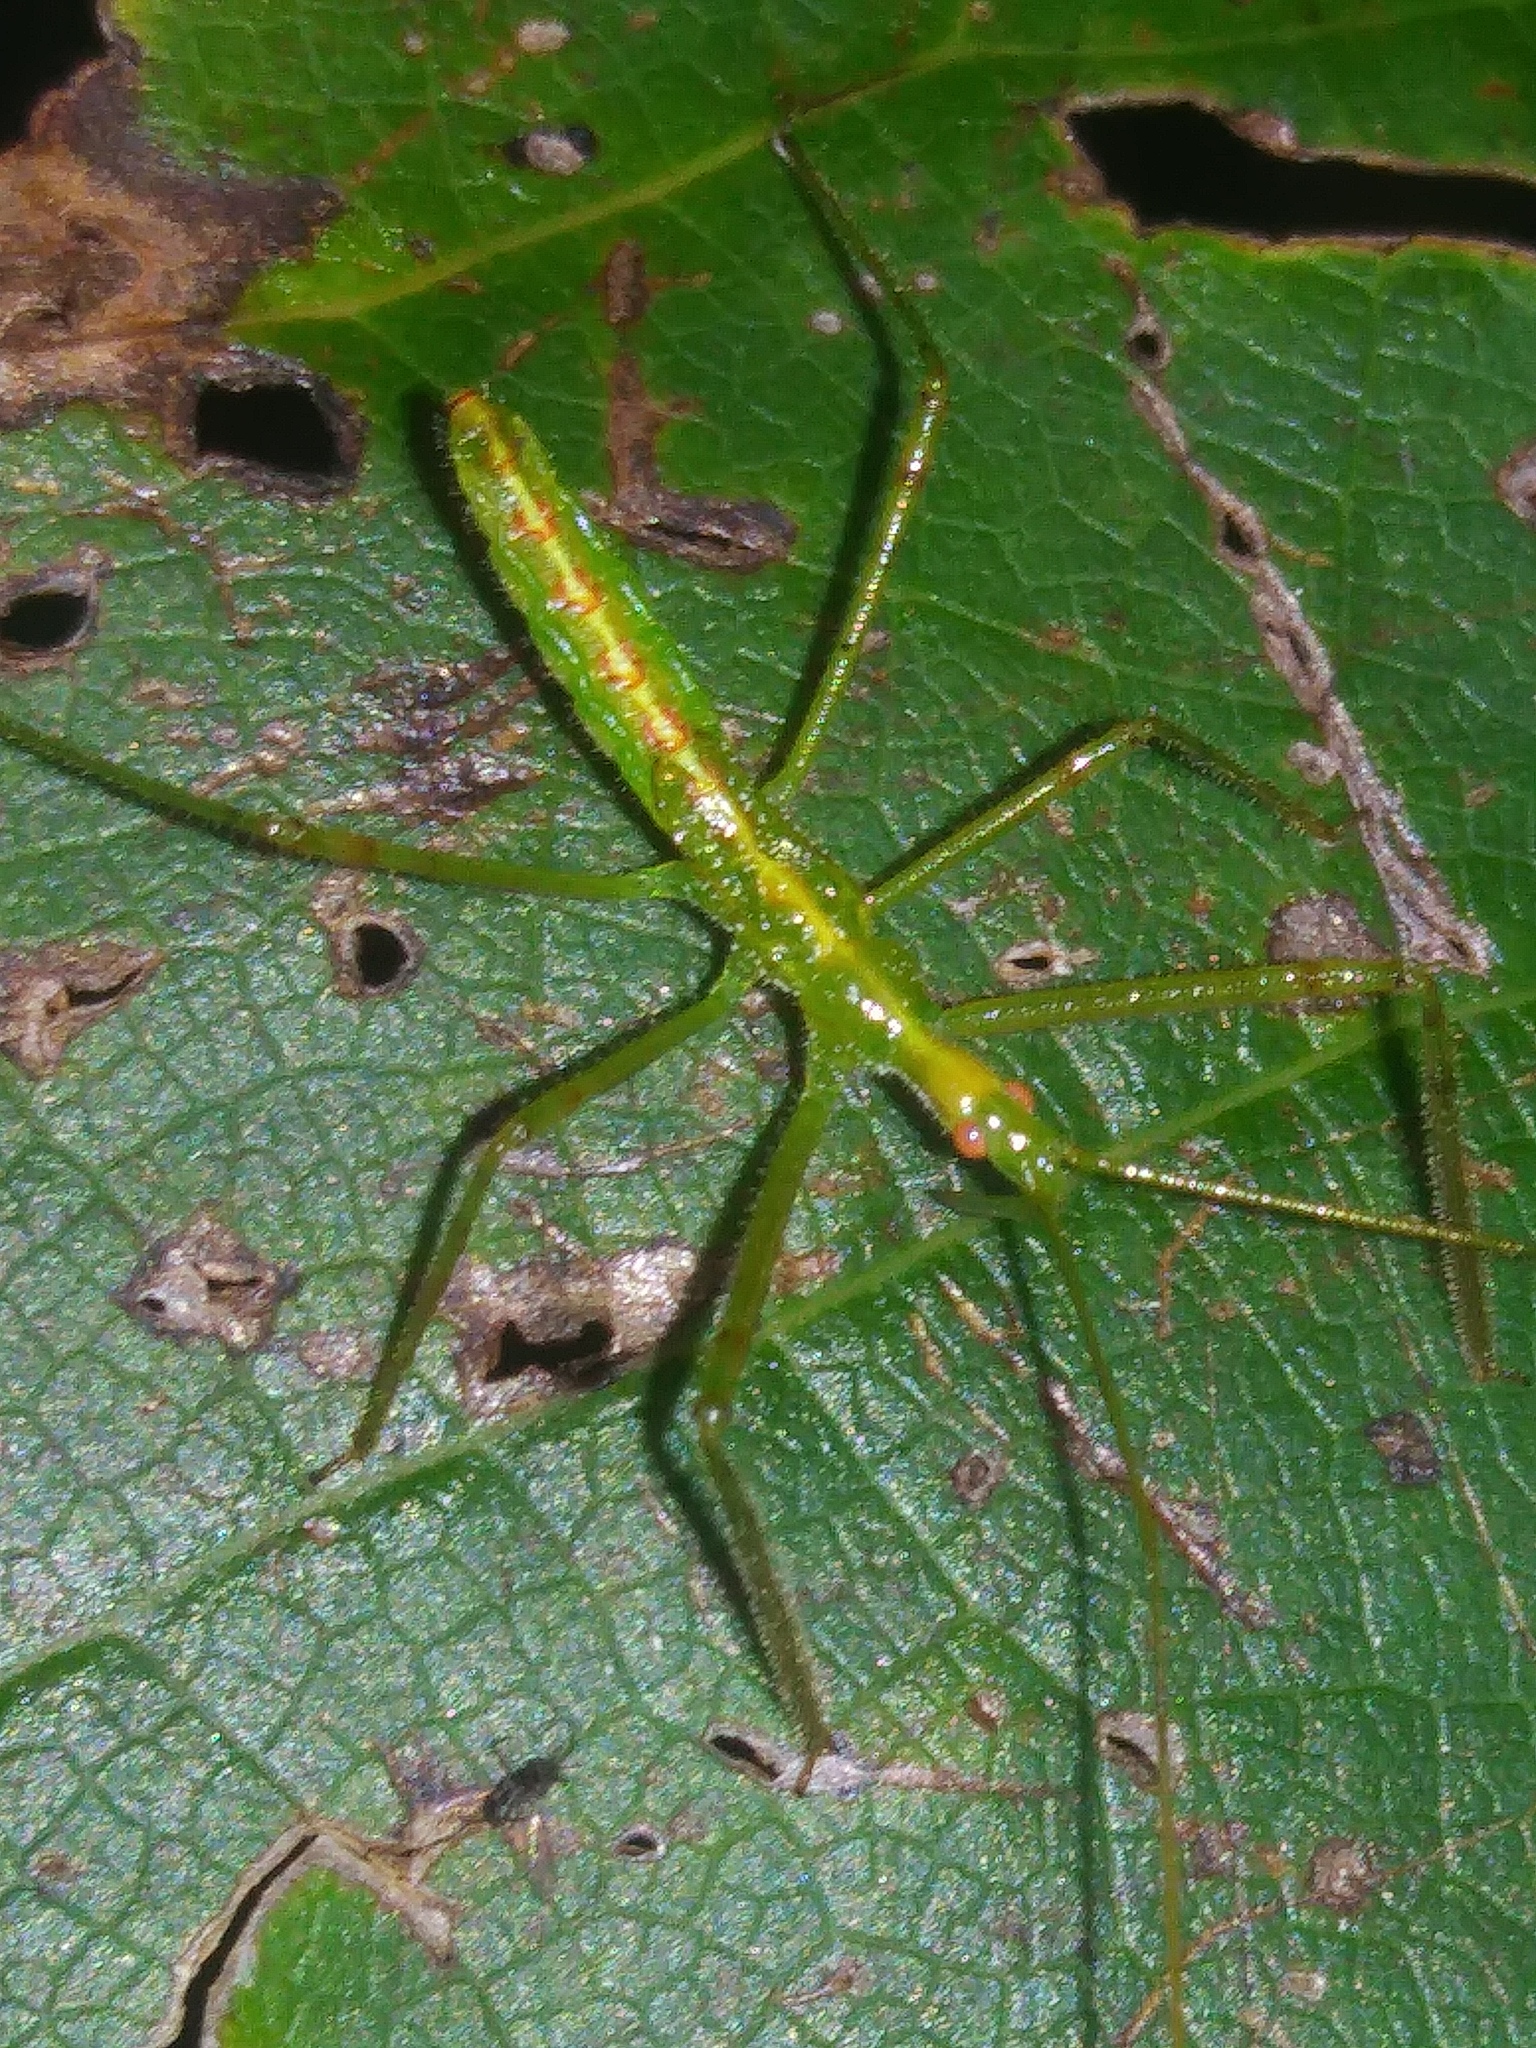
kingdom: Animalia
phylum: Arthropoda
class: Insecta
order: Hemiptera
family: Reduviidae
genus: Zelus
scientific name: Zelus luridus
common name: Pale green assassin bug
